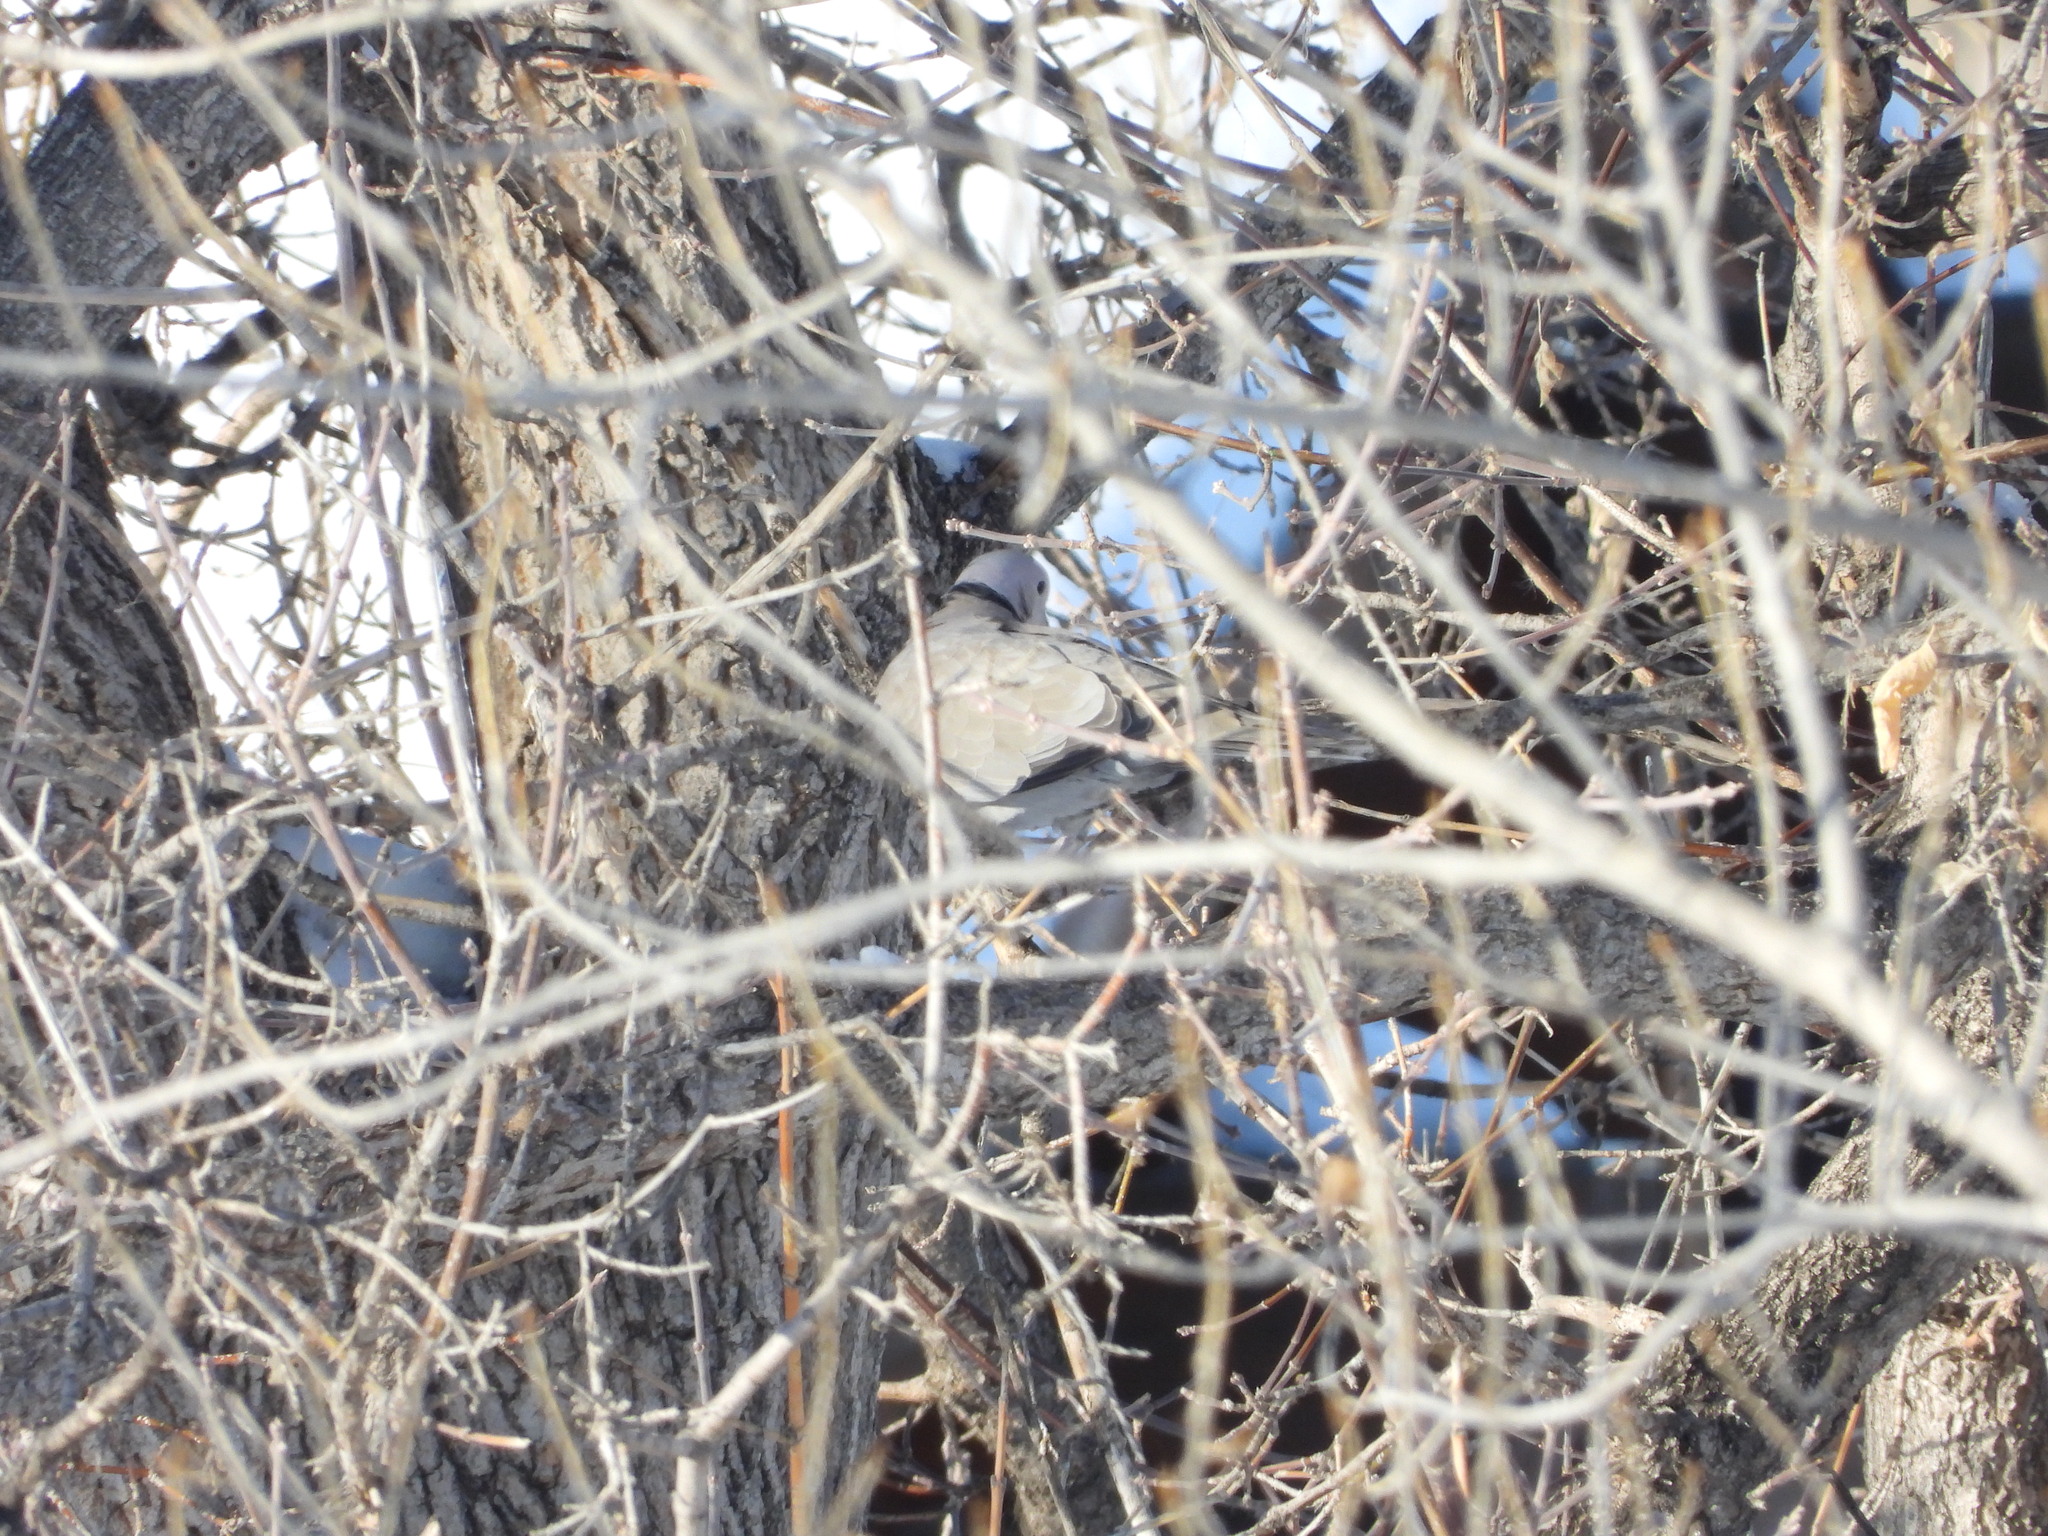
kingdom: Animalia
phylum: Chordata
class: Aves
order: Columbiformes
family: Columbidae
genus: Streptopelia
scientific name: Streptopelia decaocto
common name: Eurasian collared dove
